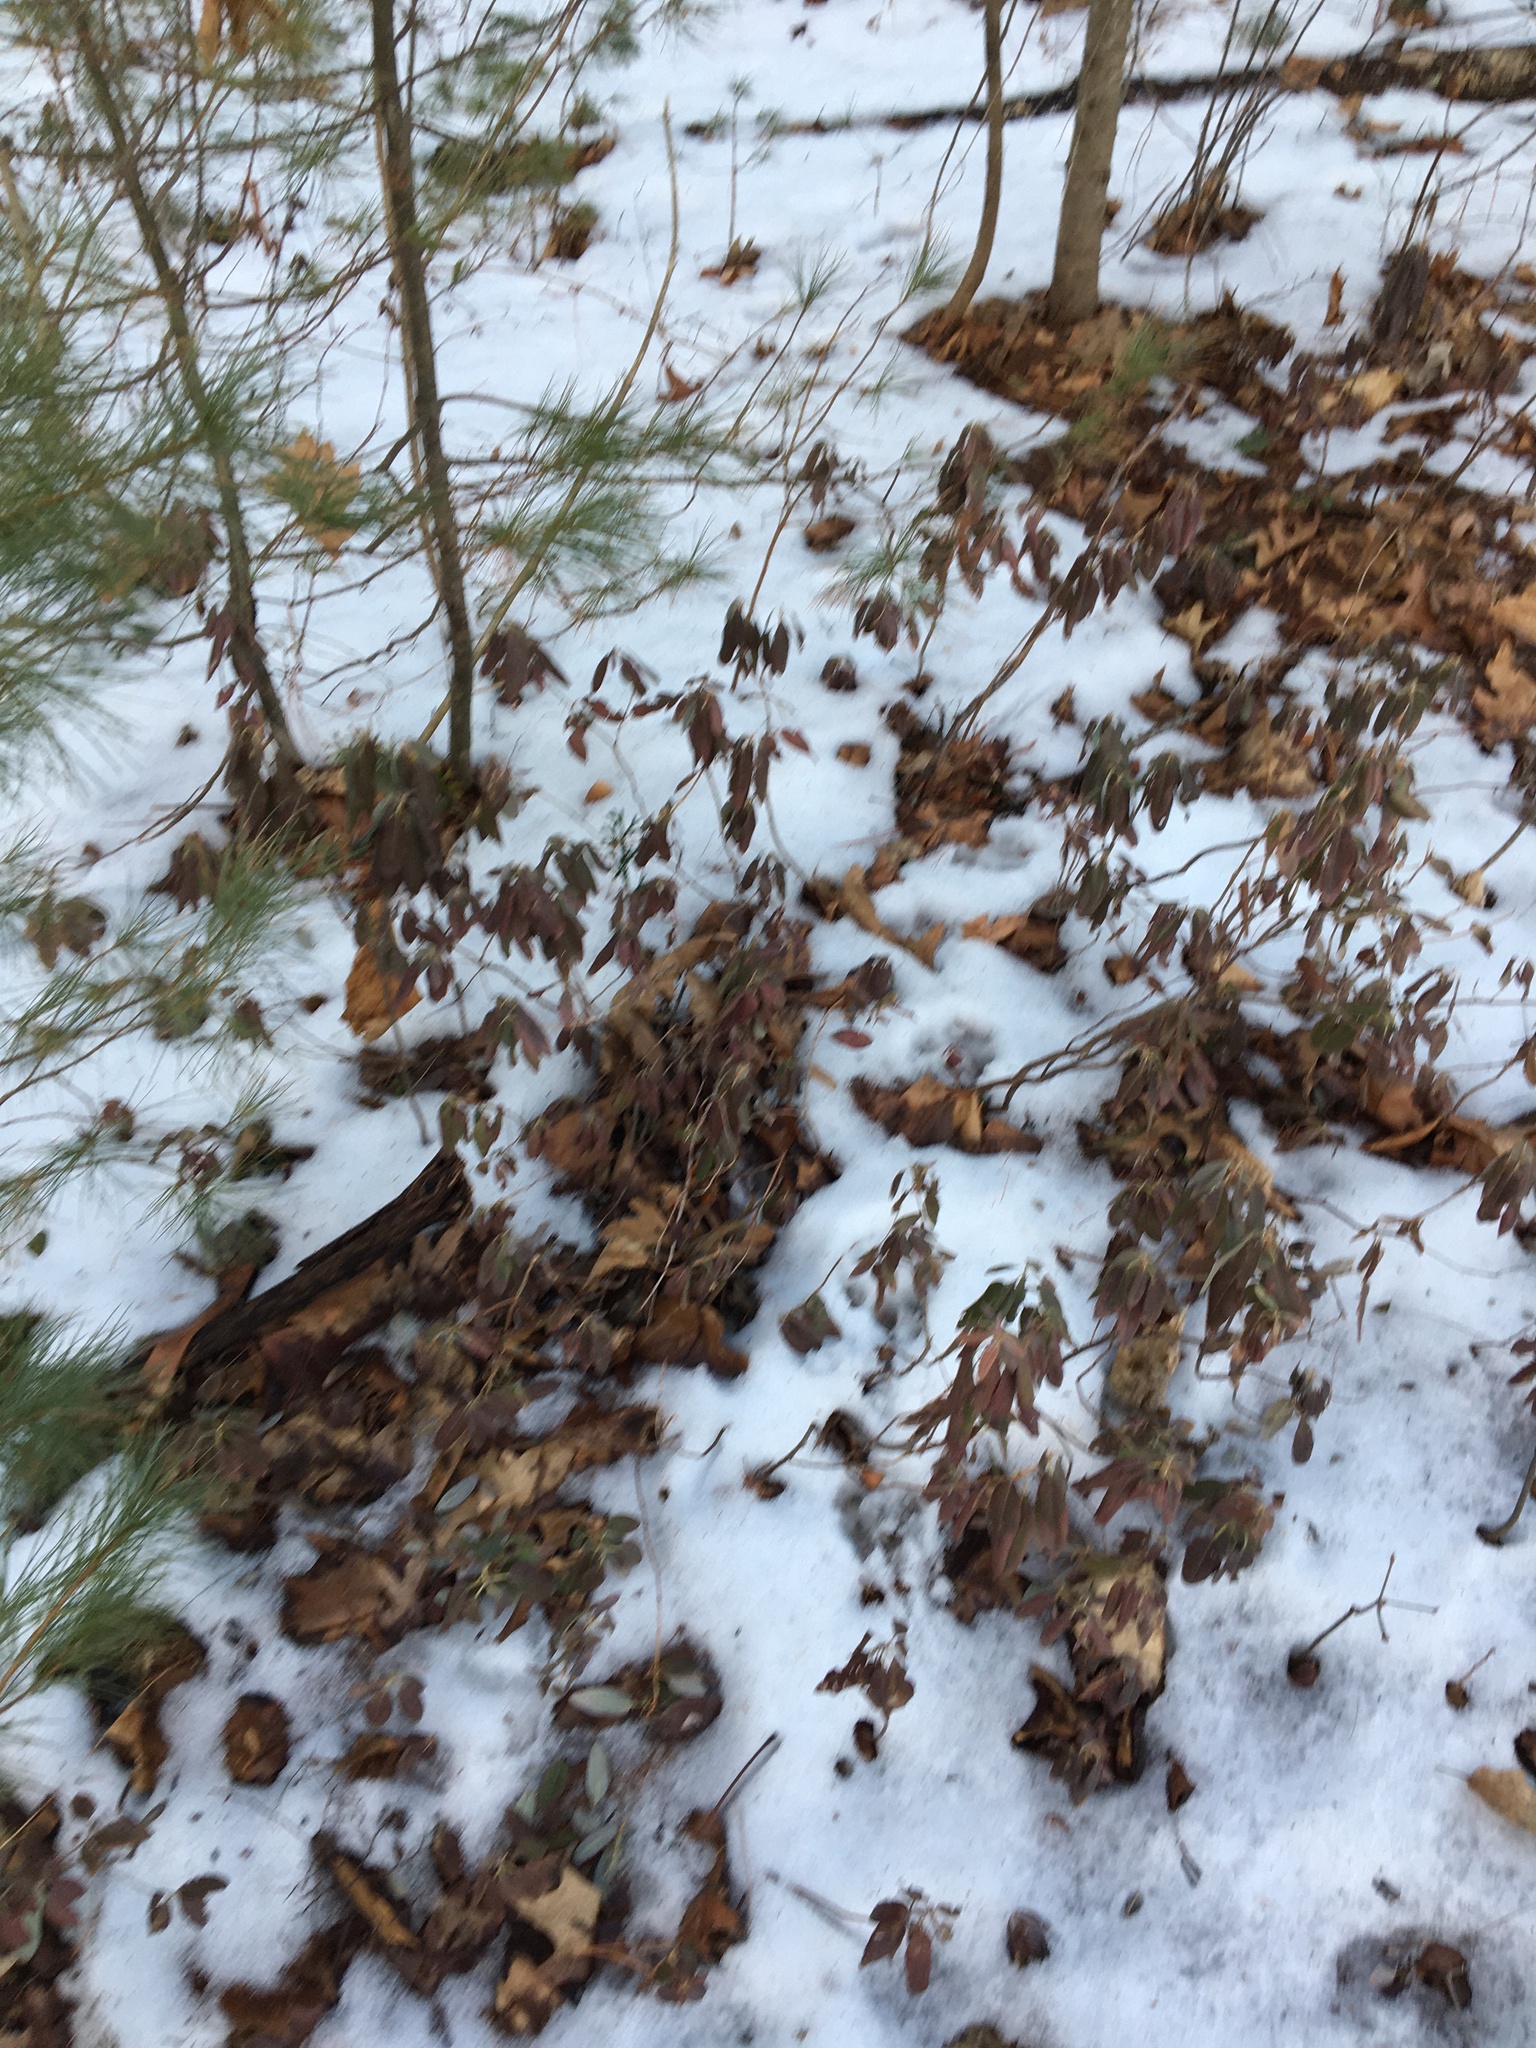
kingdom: Plantae
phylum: Tracheophyta
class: Magnoliopsida
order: Ericales
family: Ericaceae
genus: Kalmia
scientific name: Kalmia angustifolia
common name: Sheep-laurel
